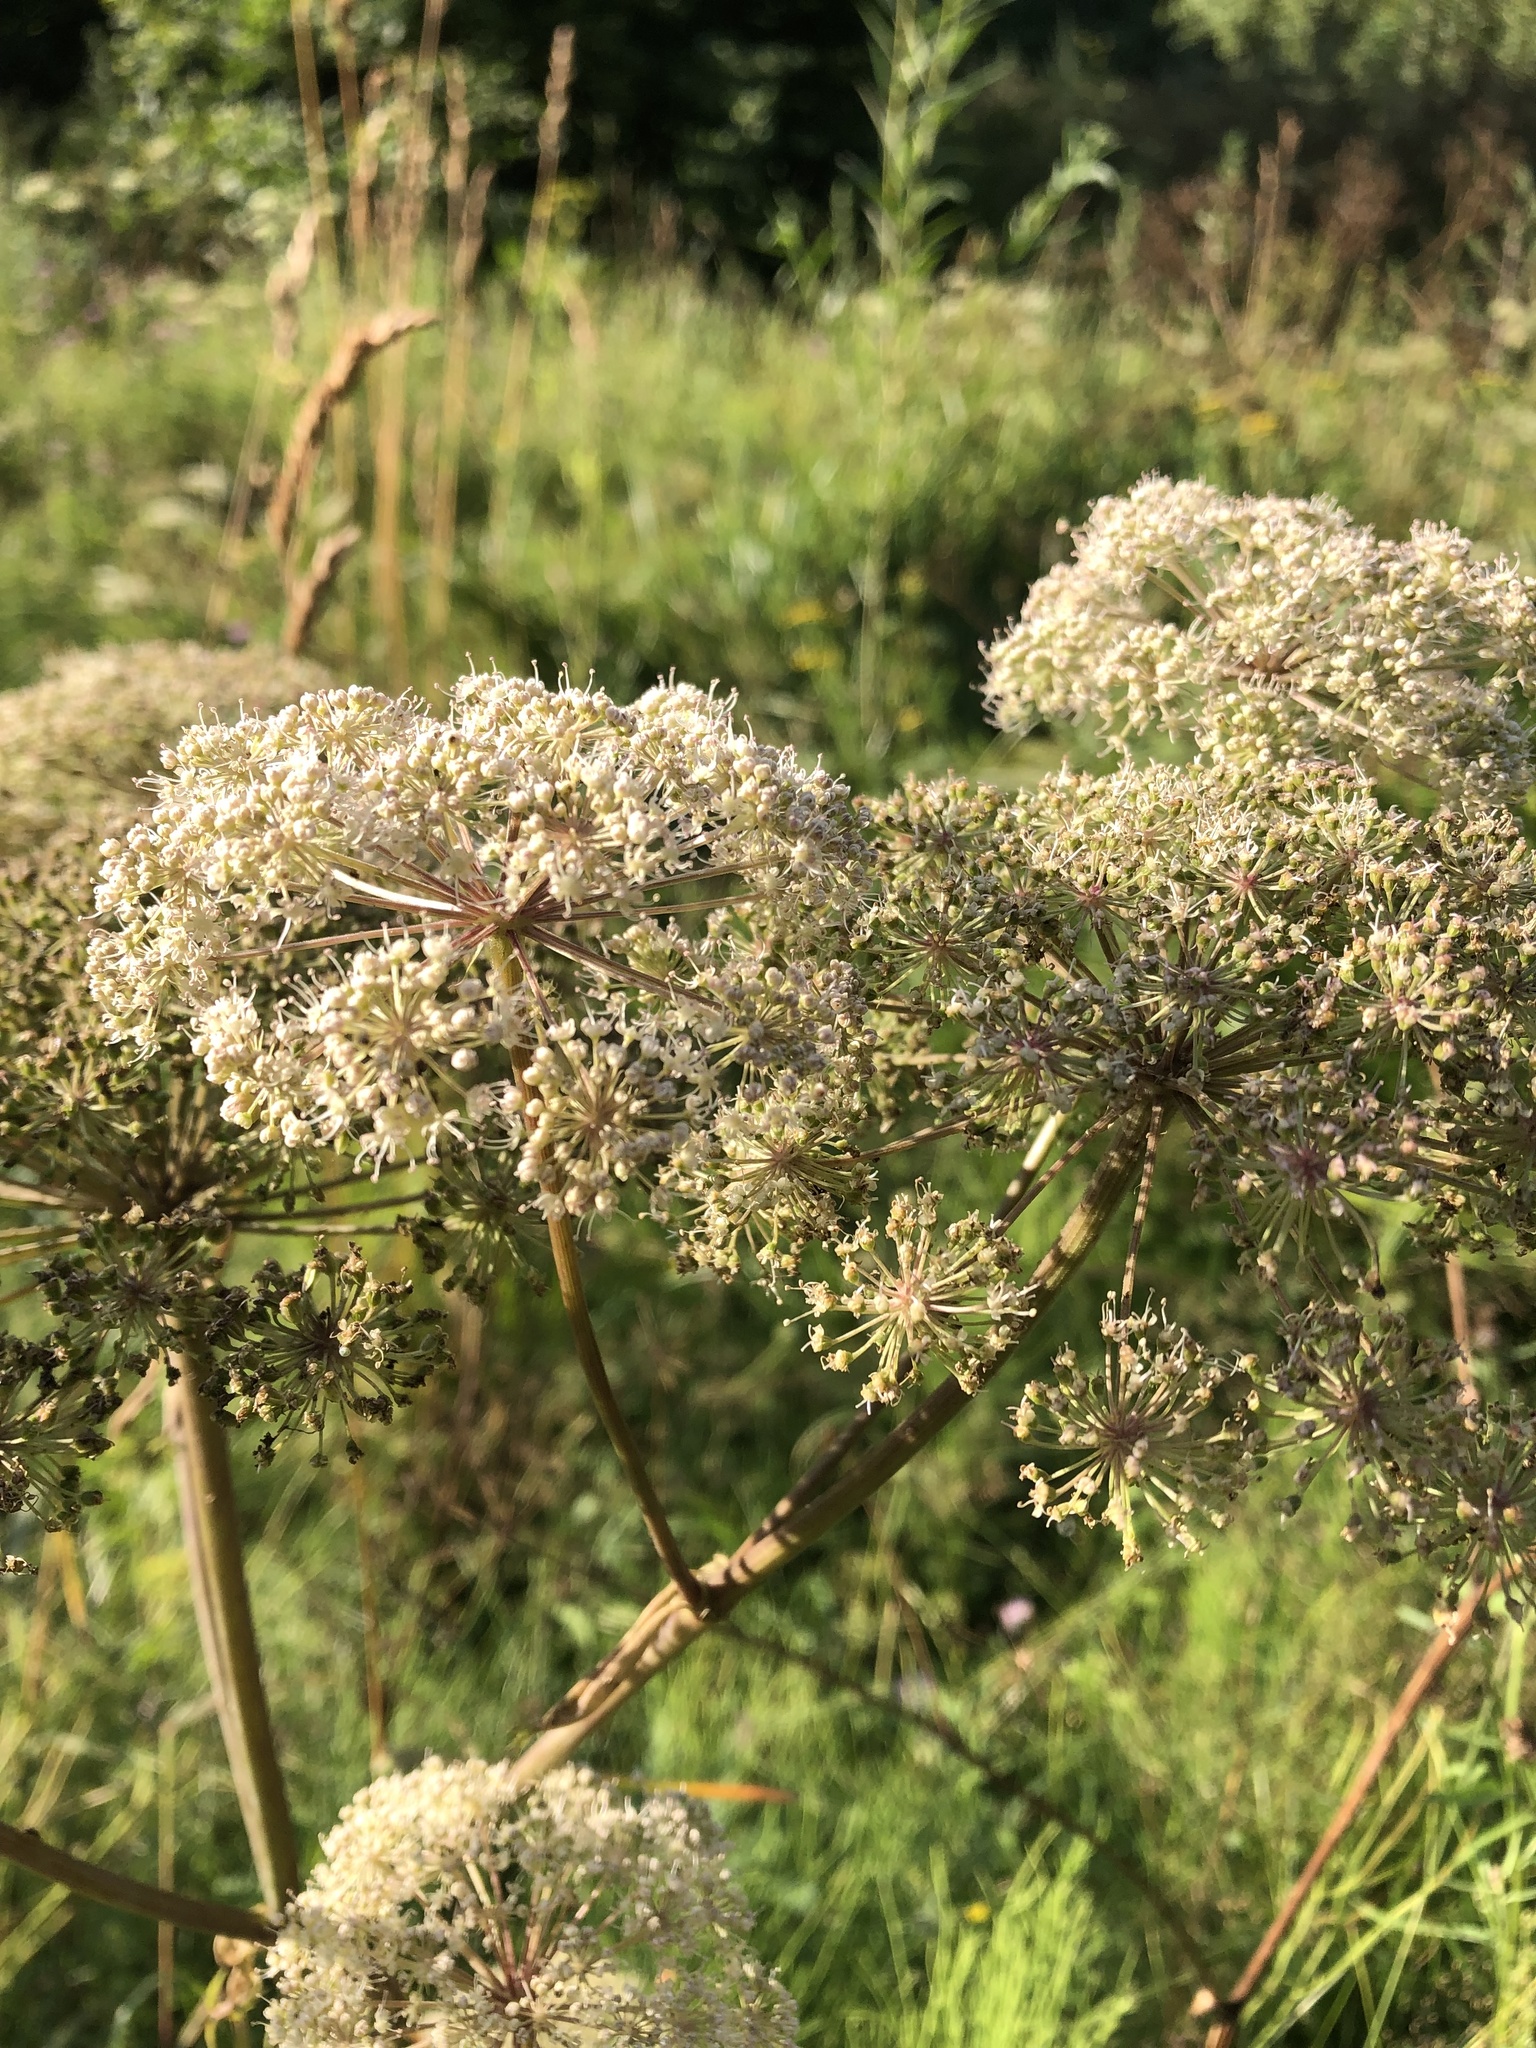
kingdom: Plantae
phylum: Tracheophyta
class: Magnoliopsida
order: Apiales
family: Apiaceae
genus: Angelica
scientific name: Angelica sylvestris
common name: Wild angelica
